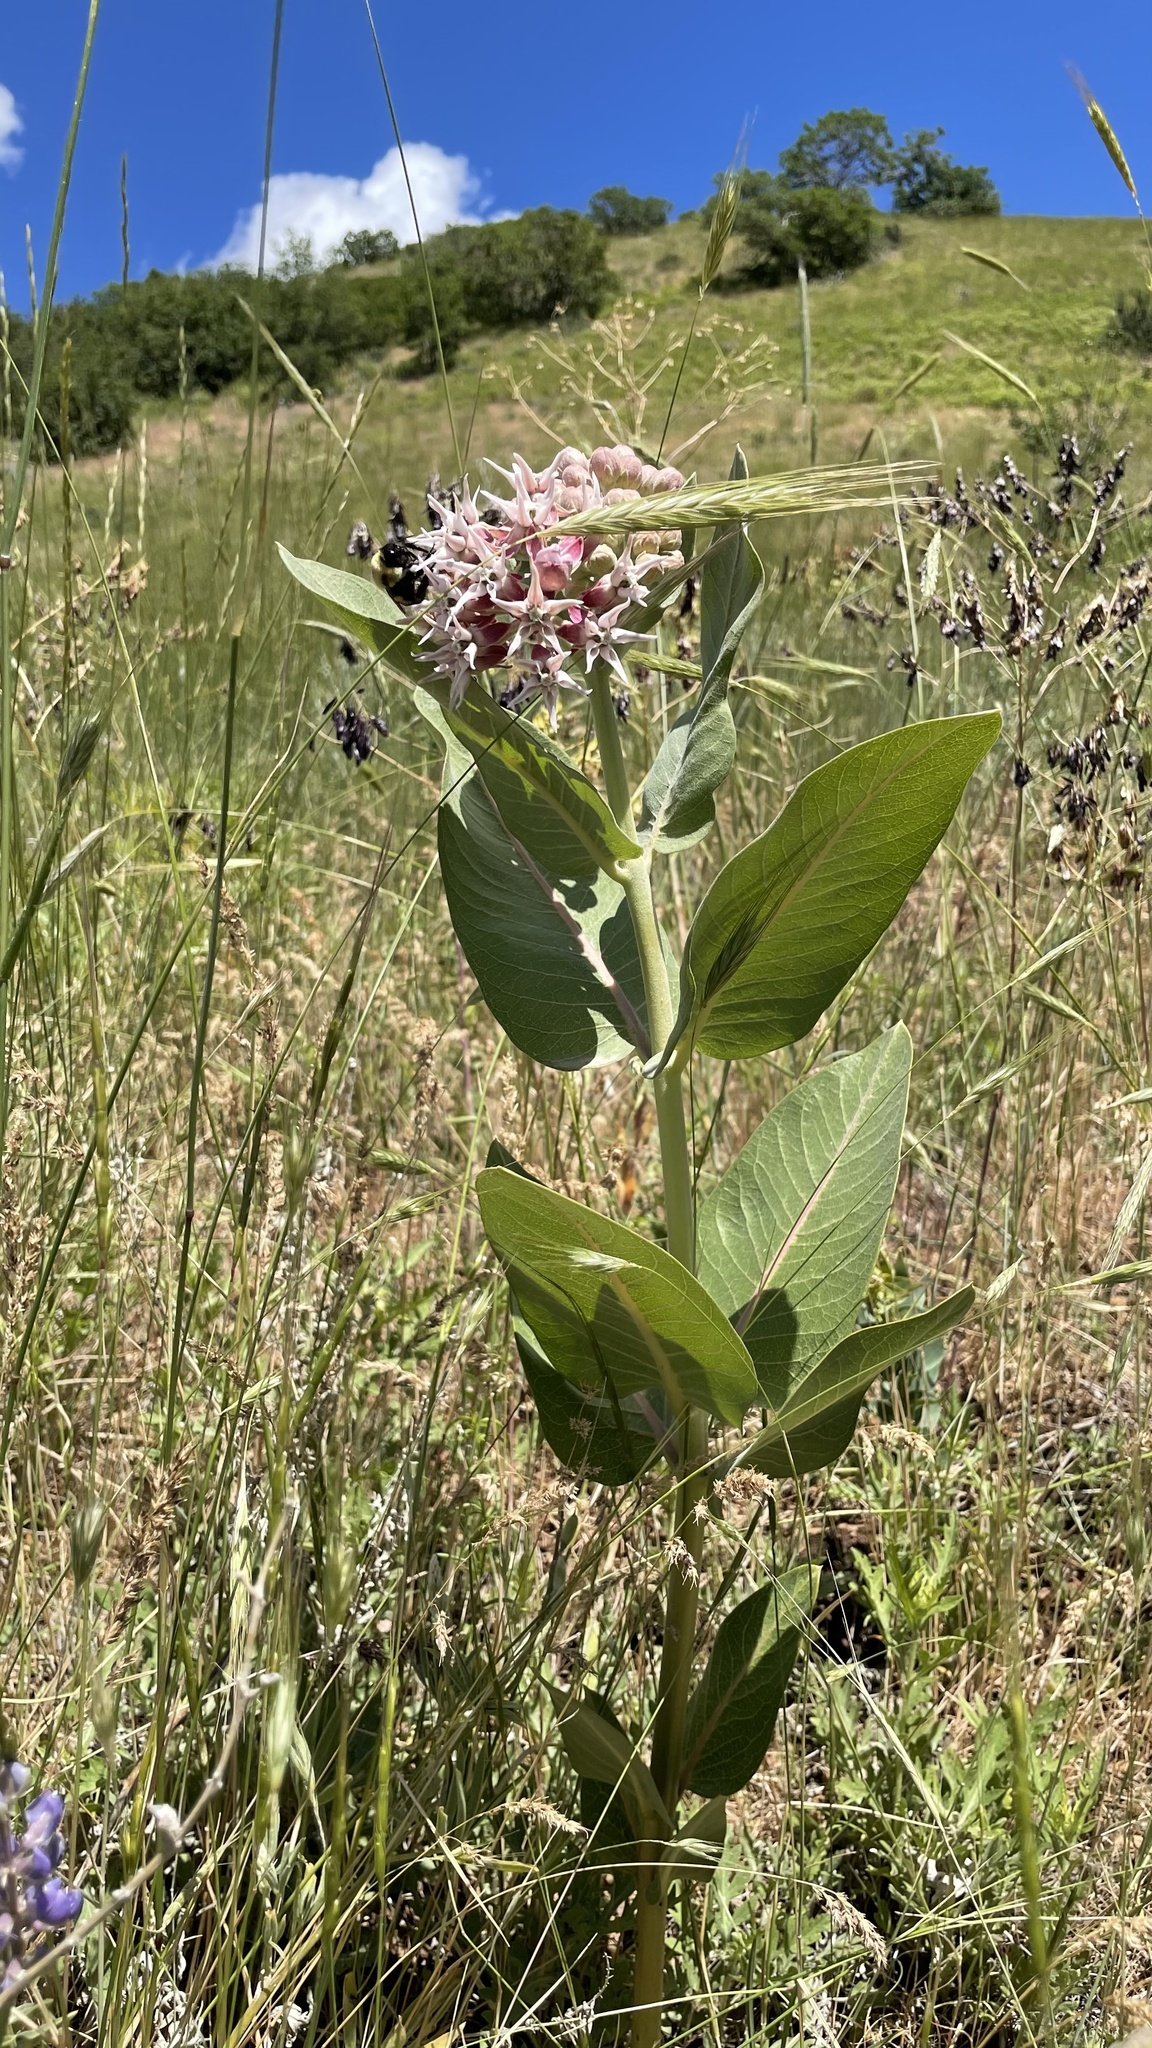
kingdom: Plantae
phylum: Tracheophyta
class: Magnoliopsida
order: Gentianales
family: Apocynaceae
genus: Asclepias
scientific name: Asclepias speciosa
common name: Showy milkweed
